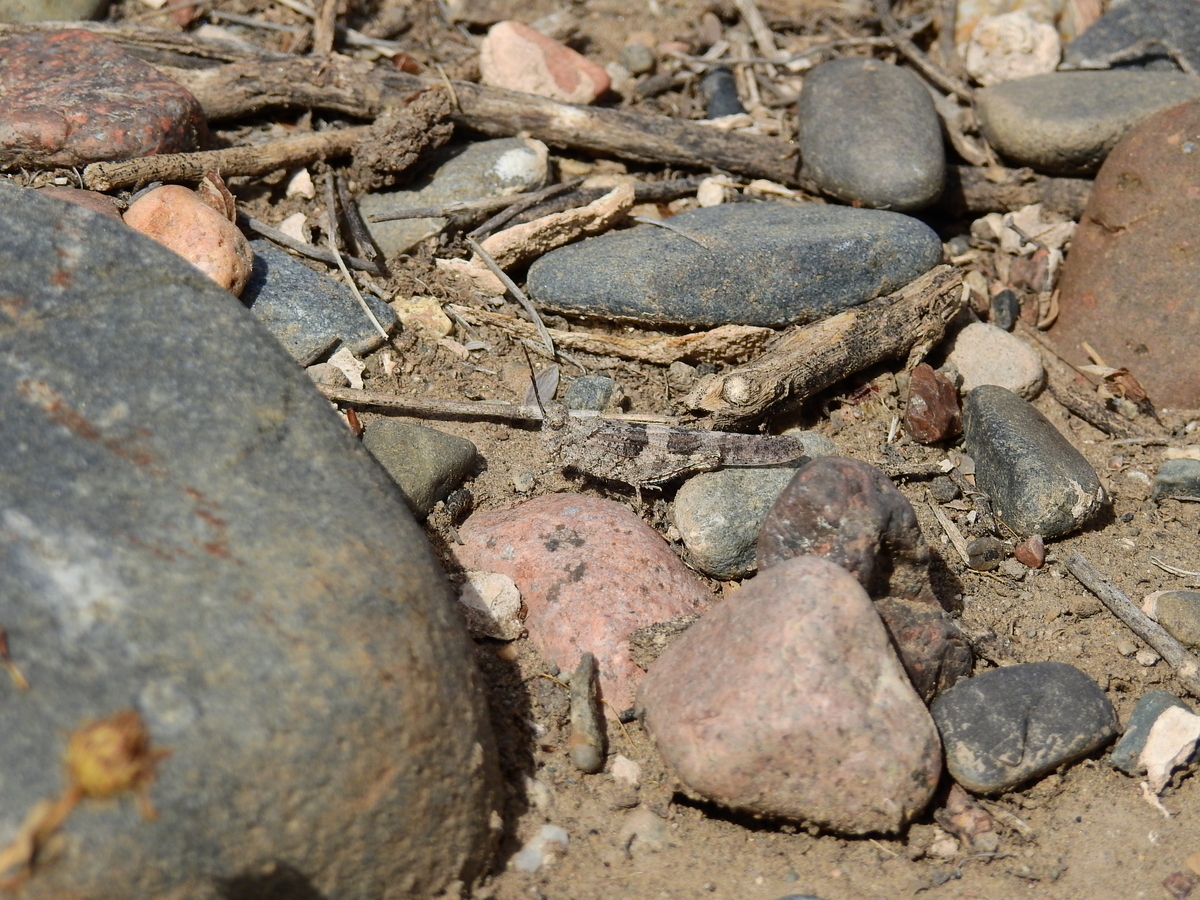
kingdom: Animalia
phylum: Arthropoda
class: Insecta
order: Orthoptera
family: Acrididae
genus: Trimerotropis
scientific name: Trimerotropis pallidipennis
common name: Pallid-winged grasshopper
